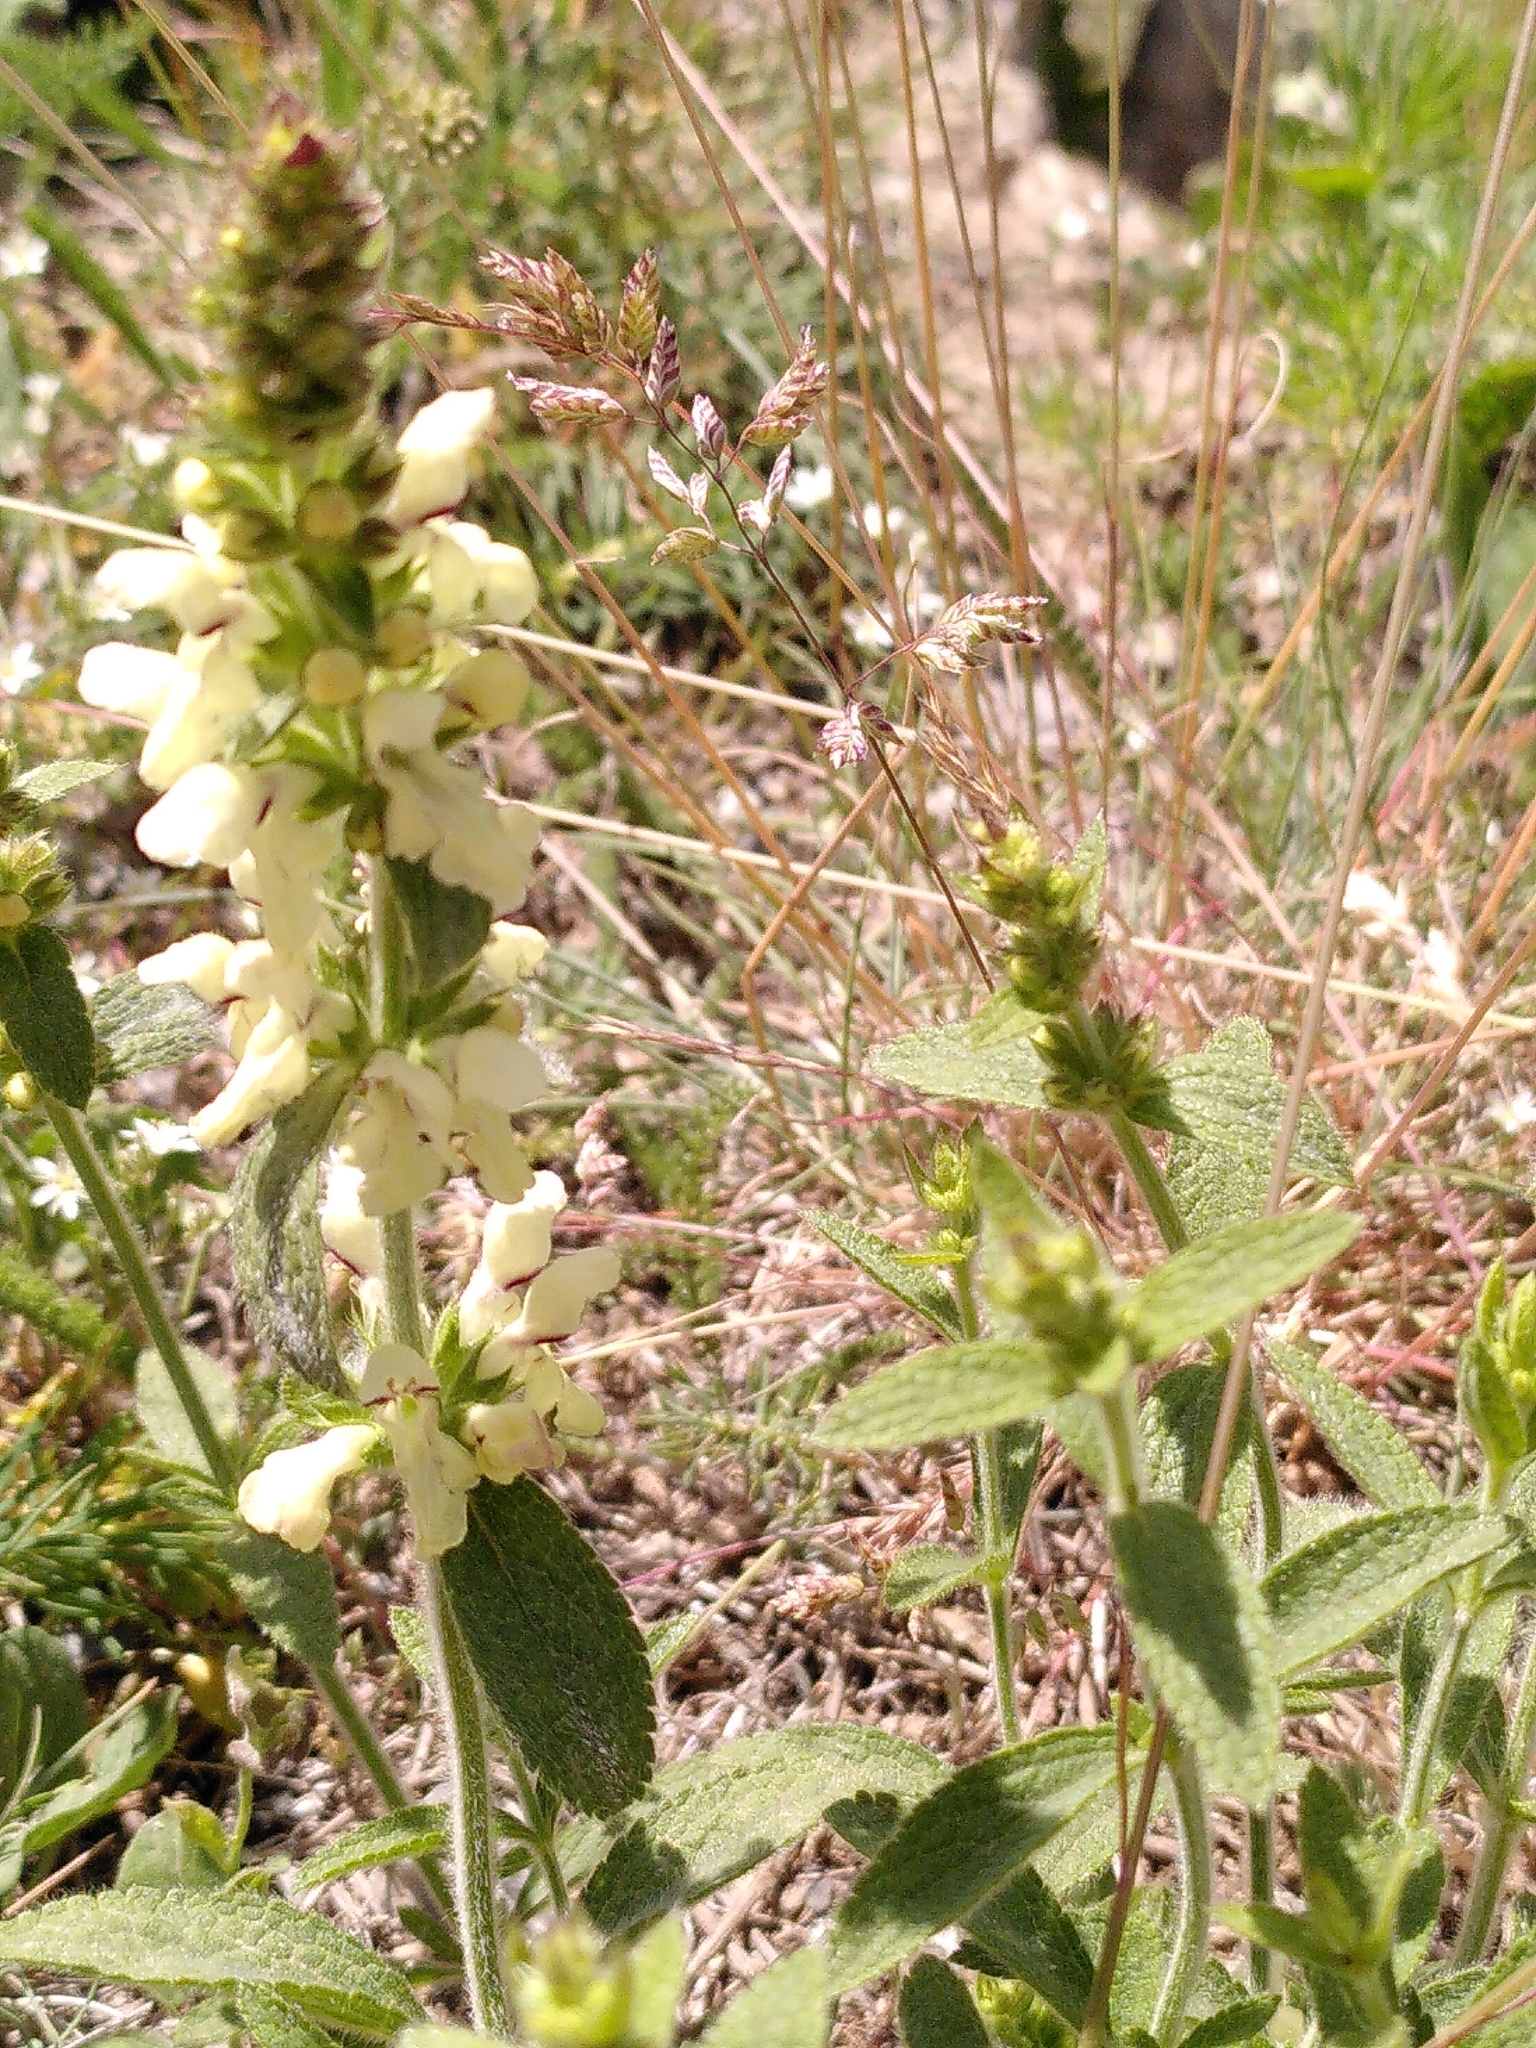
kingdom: Plantae
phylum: Tracheophyta
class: Magnoliopsida
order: Lamiales
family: Lamiaceae
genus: Stachys
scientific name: Stachys recta
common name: Perennial yellow-woundwort
